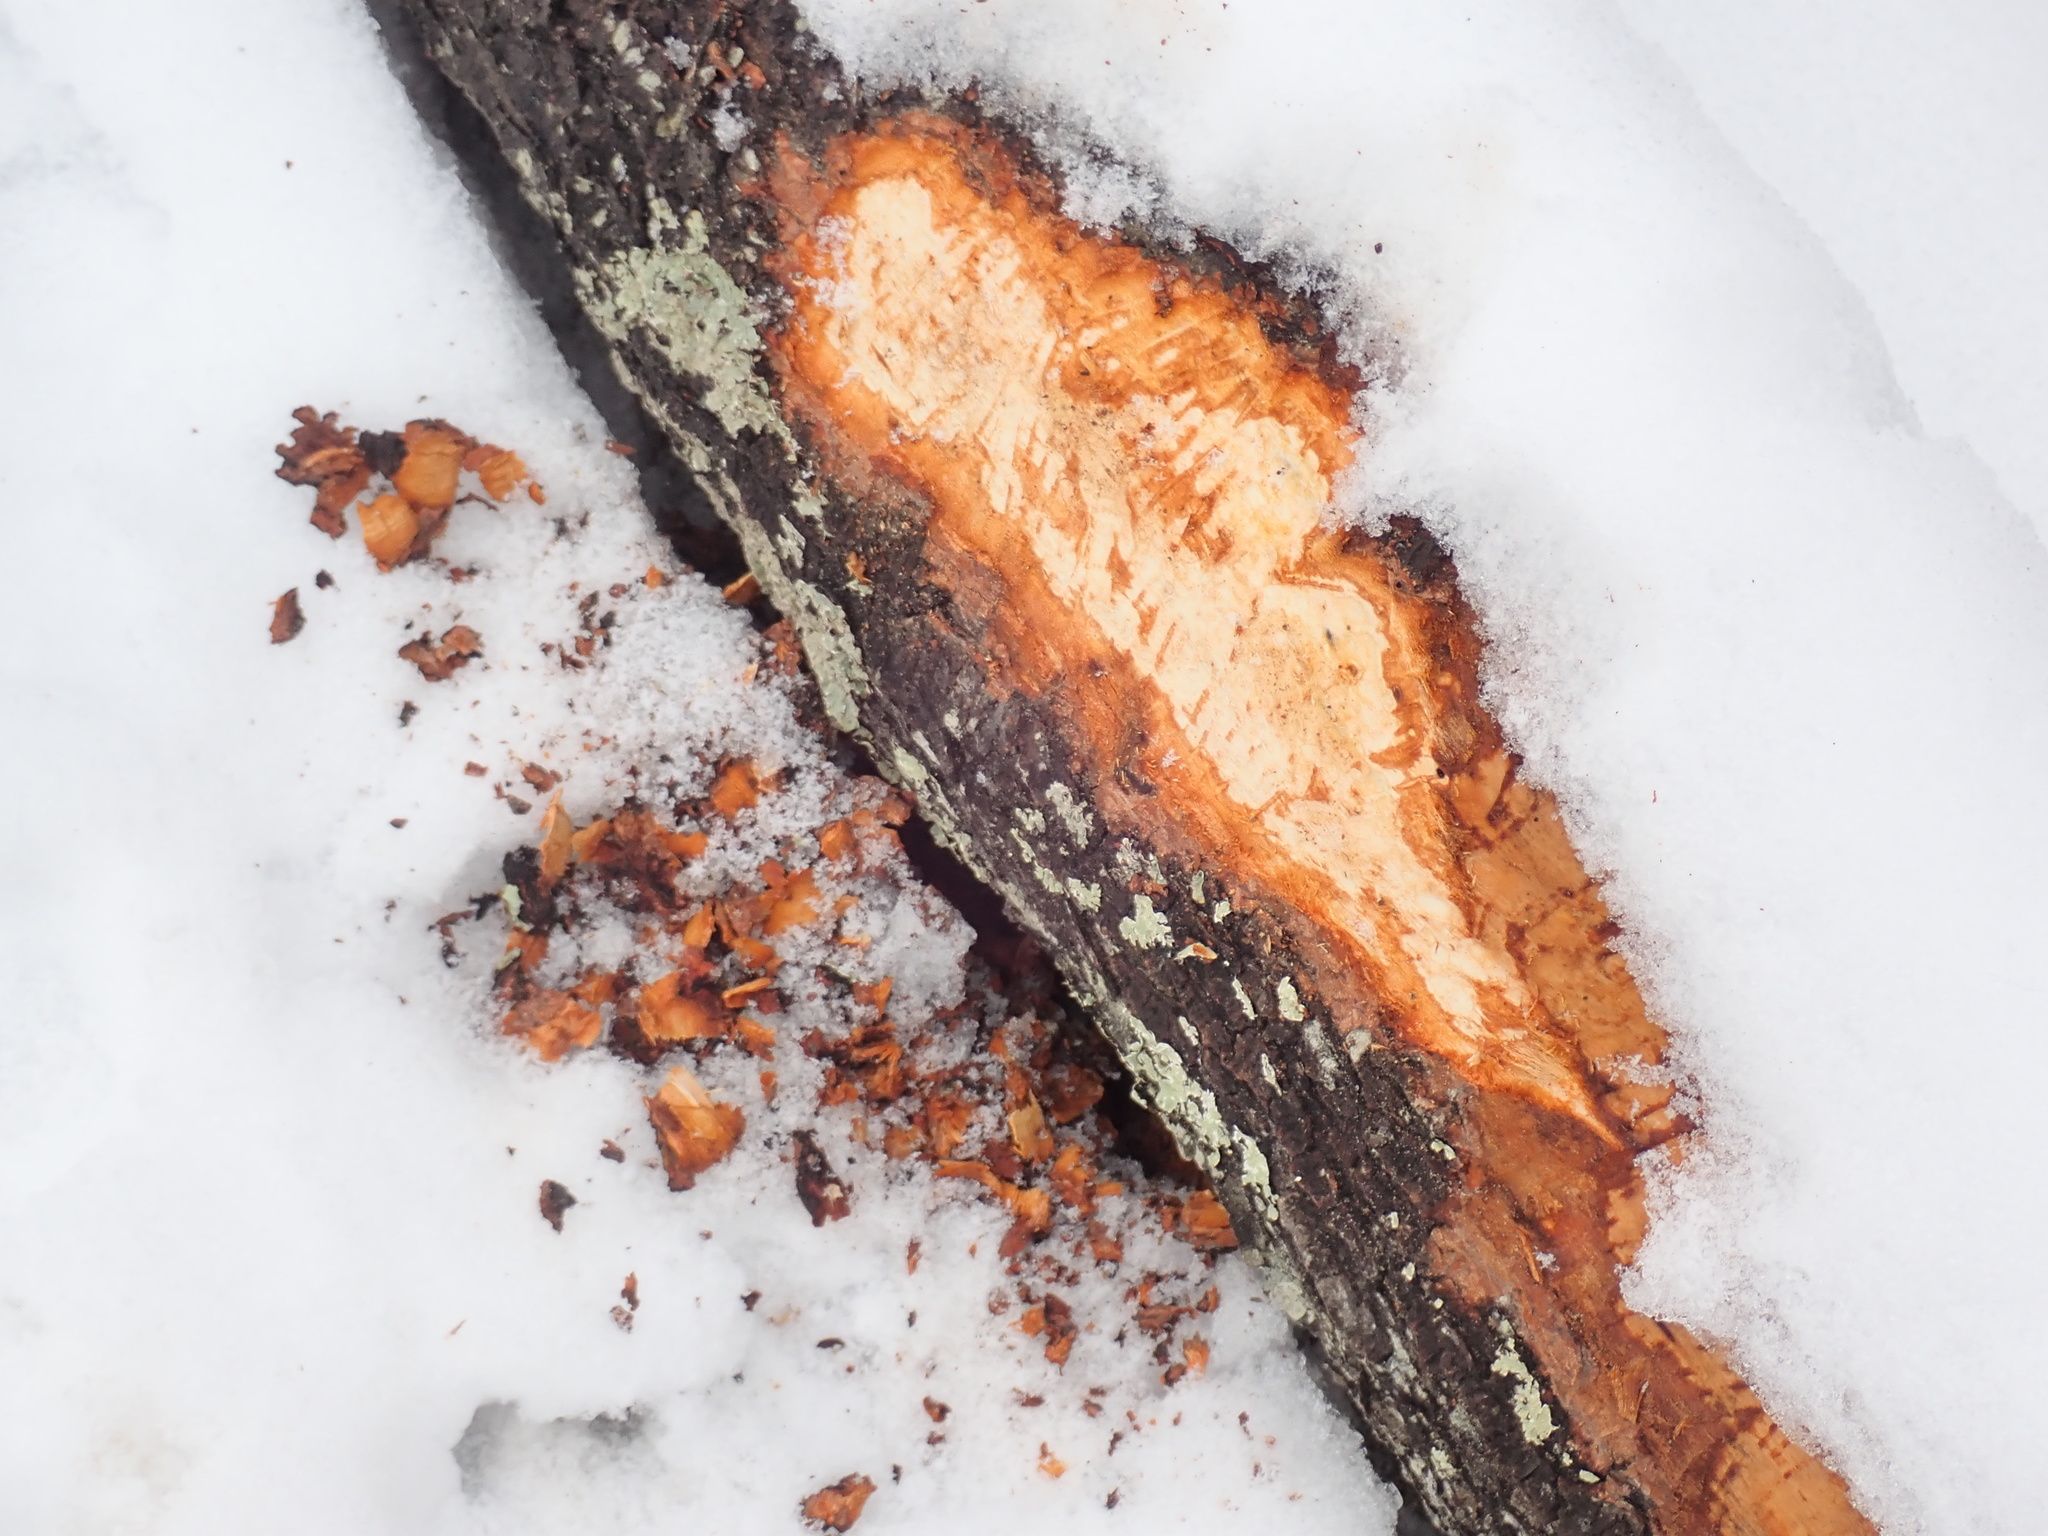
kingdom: Animalia
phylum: Chordata
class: Mammalia
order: Rodentia
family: Castoridae
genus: Castor
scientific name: Castor canadensis
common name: American beaver
